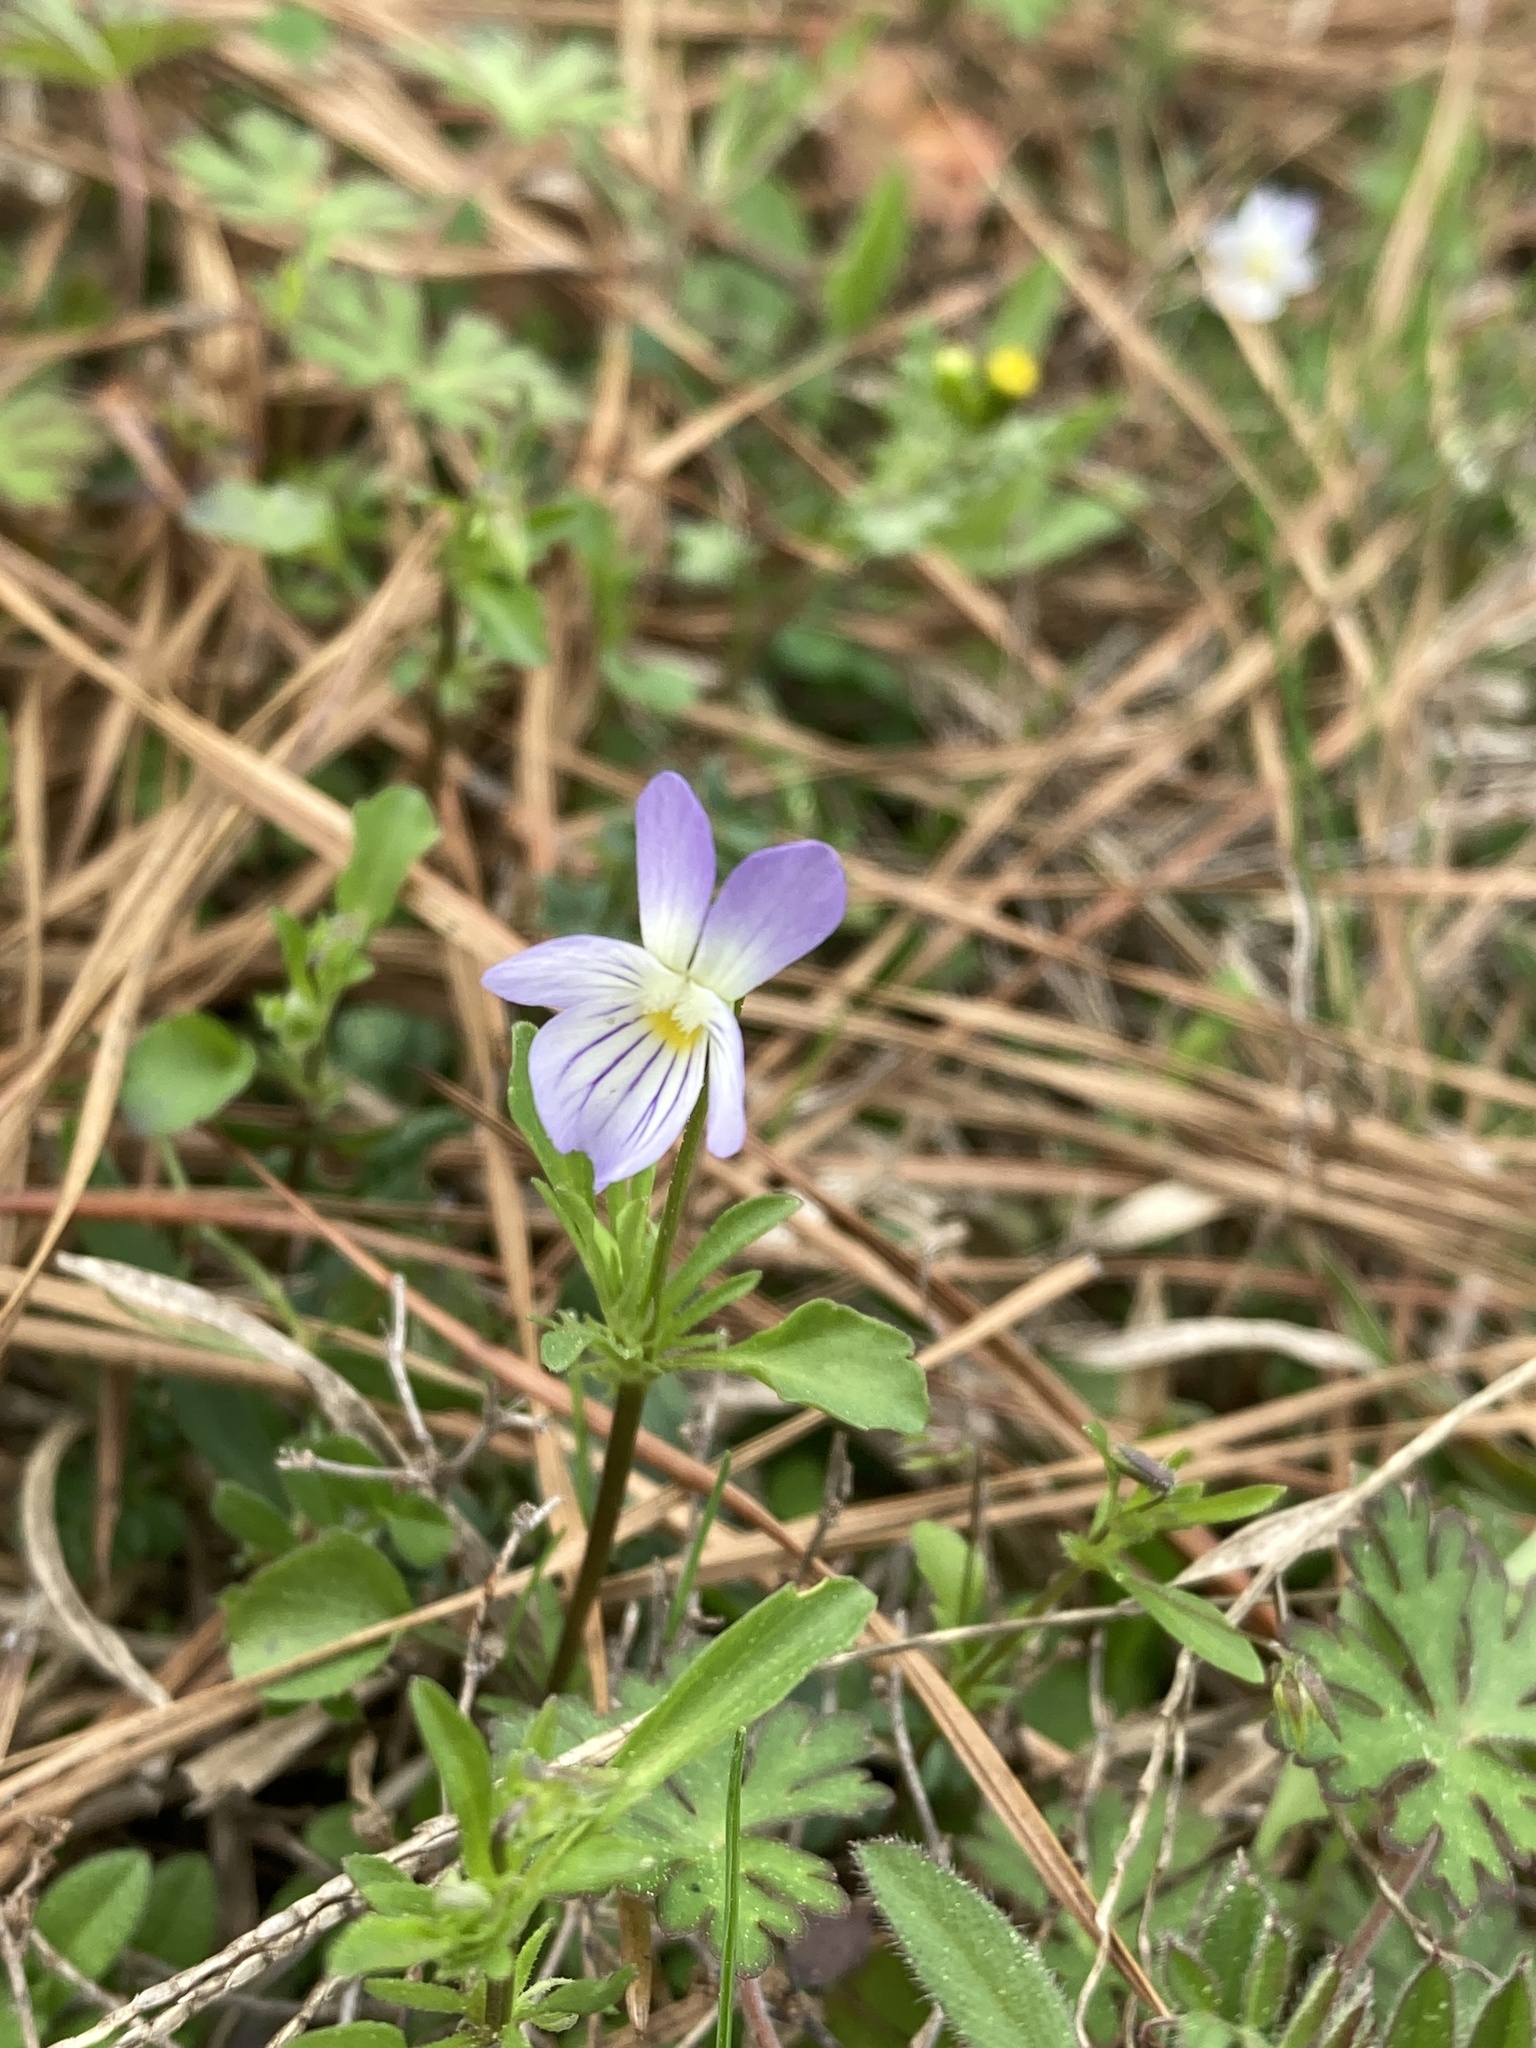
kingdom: Plantae
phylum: Tracheophyta
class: Magnoliopsida
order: Malpighiales
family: Violaceae
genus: Viola
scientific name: Viola rafinesquei
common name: American field pansy
